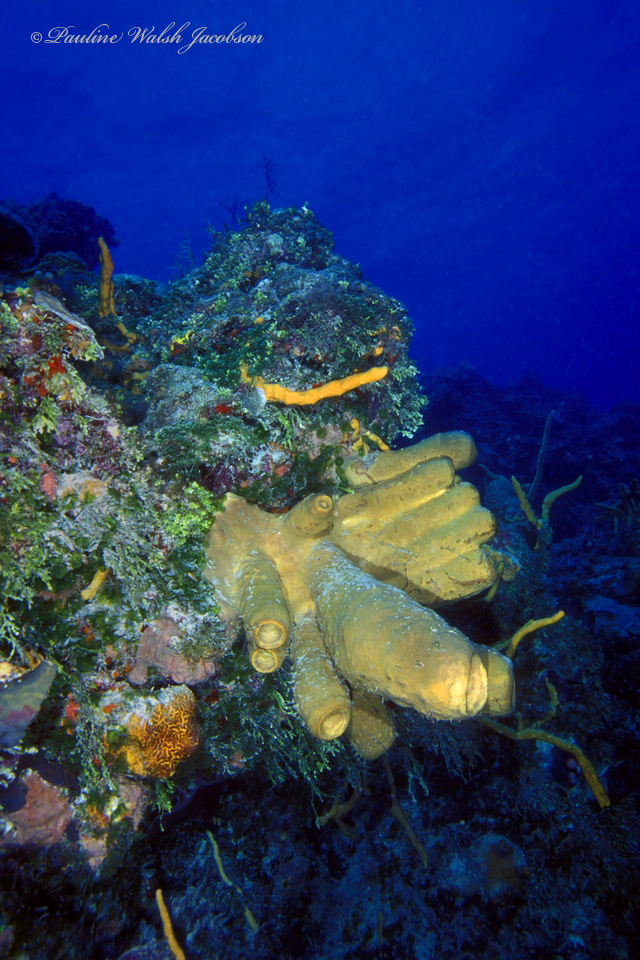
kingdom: Animalia
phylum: Porifera
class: Demospongiae
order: Agelasida
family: Agelasidae
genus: Agelas
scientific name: Agelas tubulata
